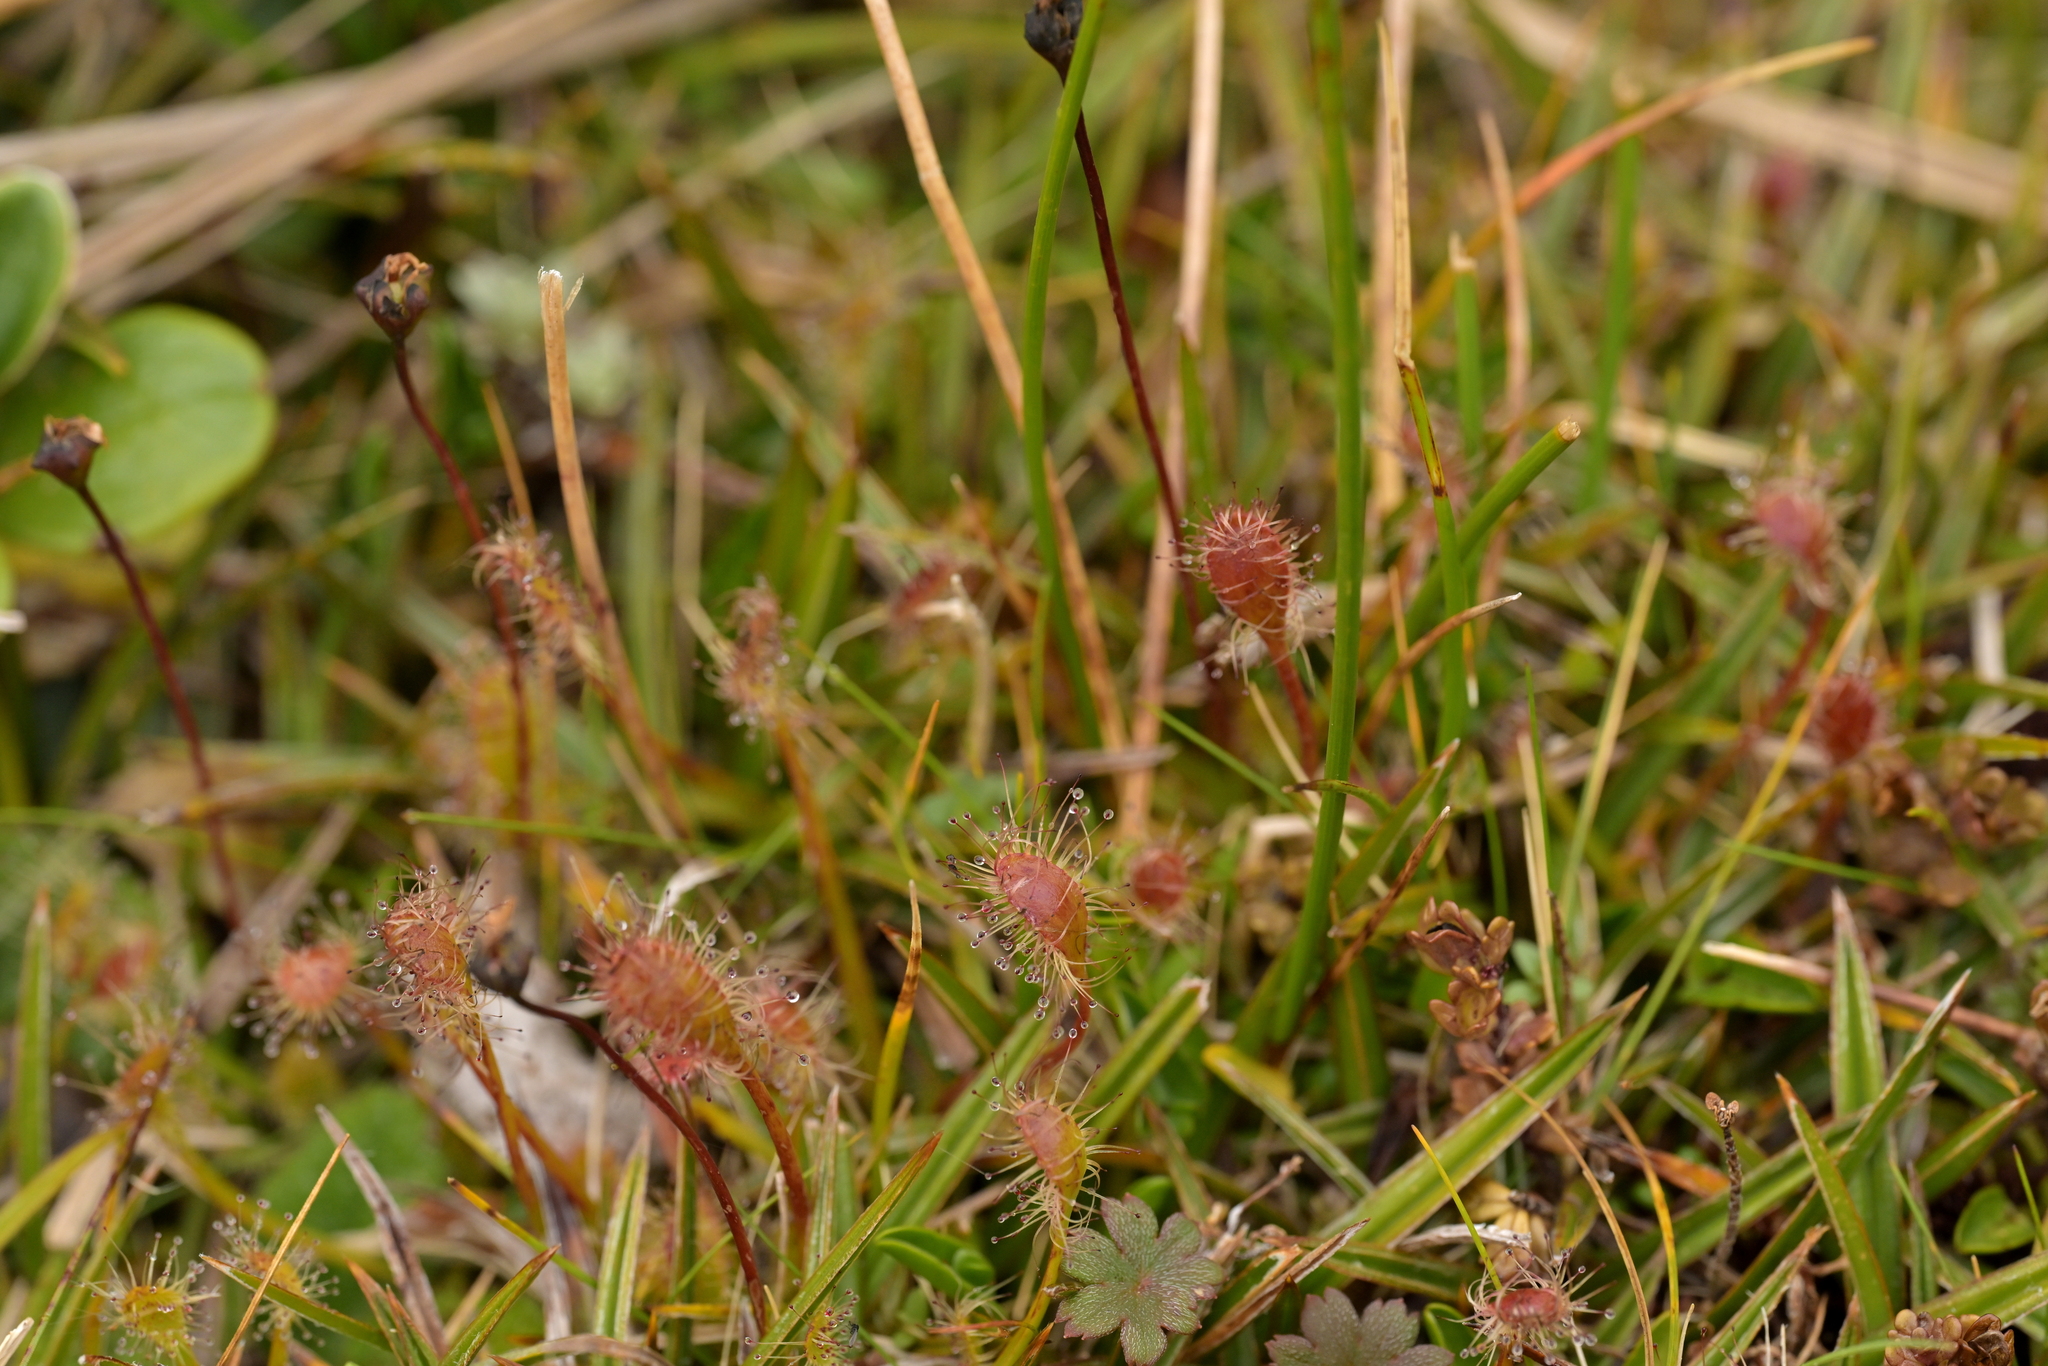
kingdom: Plantae
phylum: Tracheophyta
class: Magnoliopsida
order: Caryophyllales
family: Droseraceae
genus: Drosera
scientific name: Drosera stenopetala
